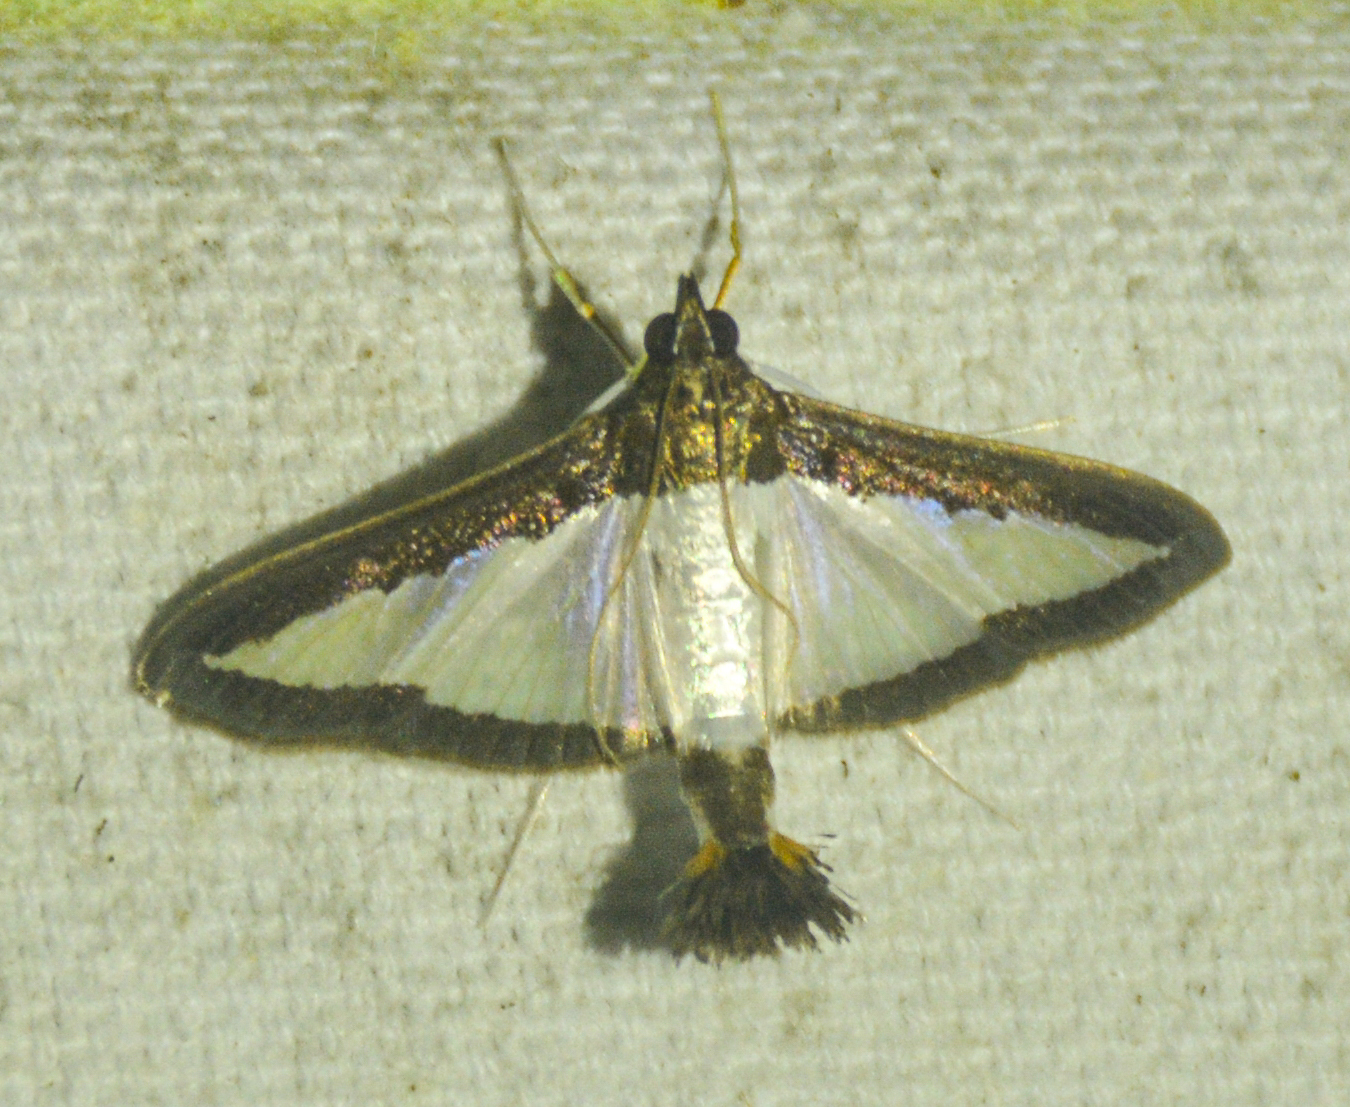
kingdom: Animalia
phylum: Arthropoda
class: Insecta
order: Lepidoptera
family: Crambidae
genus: Diaphania
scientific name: Diaphania hyalinata
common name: Melonworm
